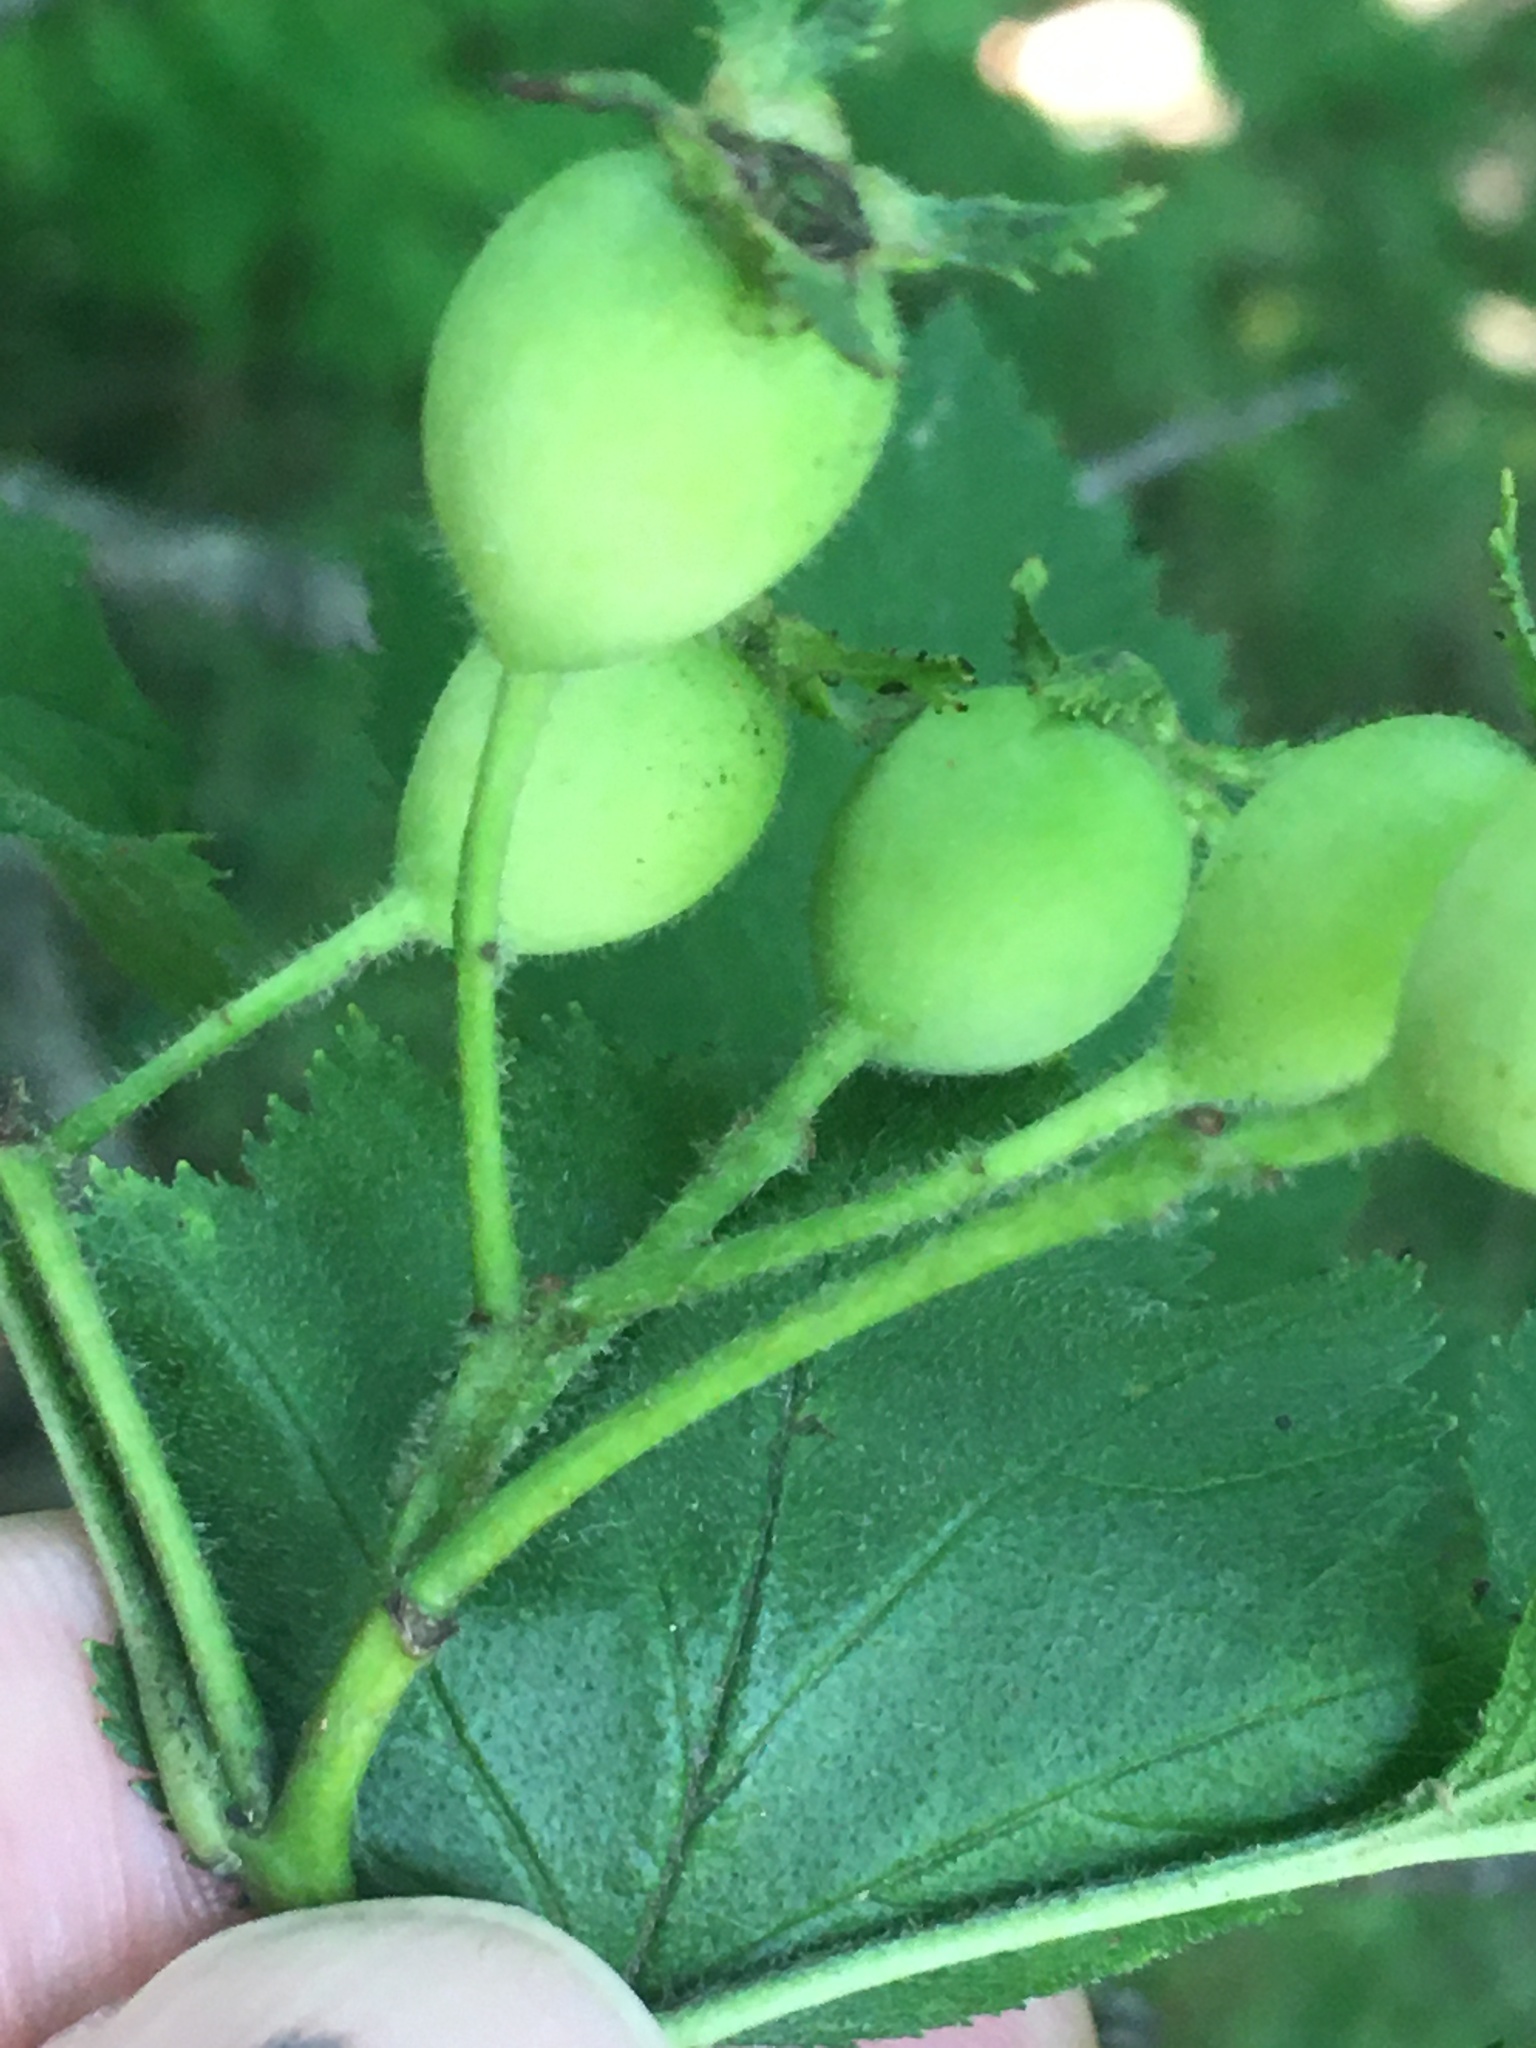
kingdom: Plantae
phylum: Tracheophyta
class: Magnoliopsida
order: Rosales
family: Rosaceae
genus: Crataegus
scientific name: Crataegus mollis
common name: Downy hawthorn
